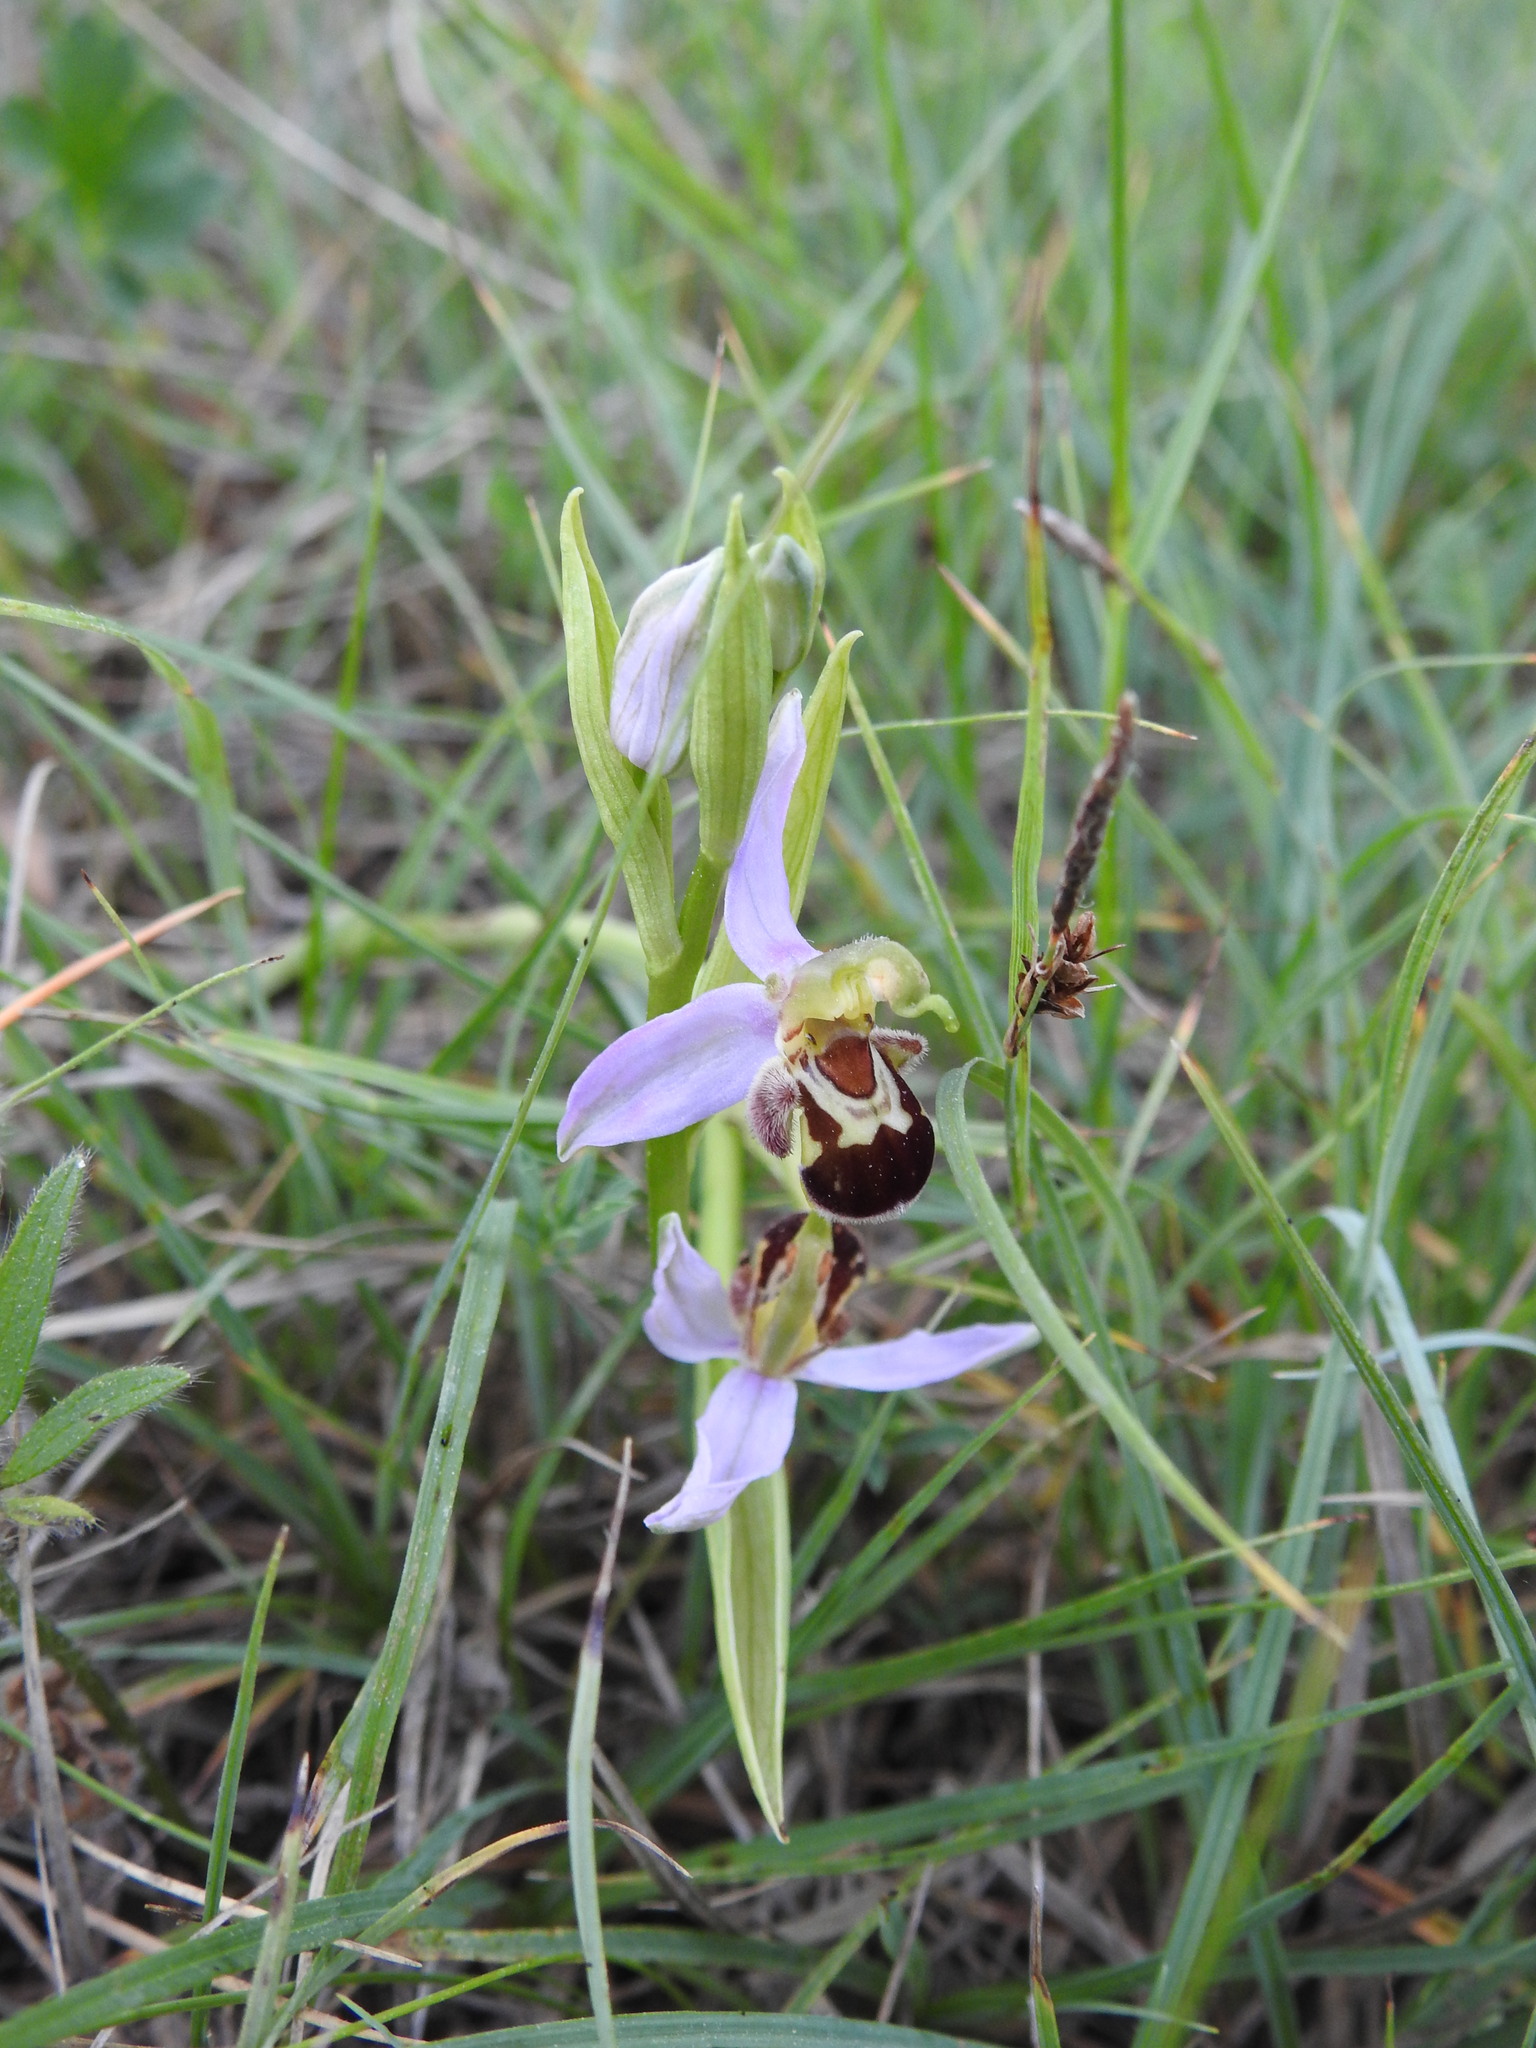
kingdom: Plantae
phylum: Tracheophyta
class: Liliopsida
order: Asparagales
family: Orchidaceae
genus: Ophrys
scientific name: Ophrys apifera
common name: Bee orchid
